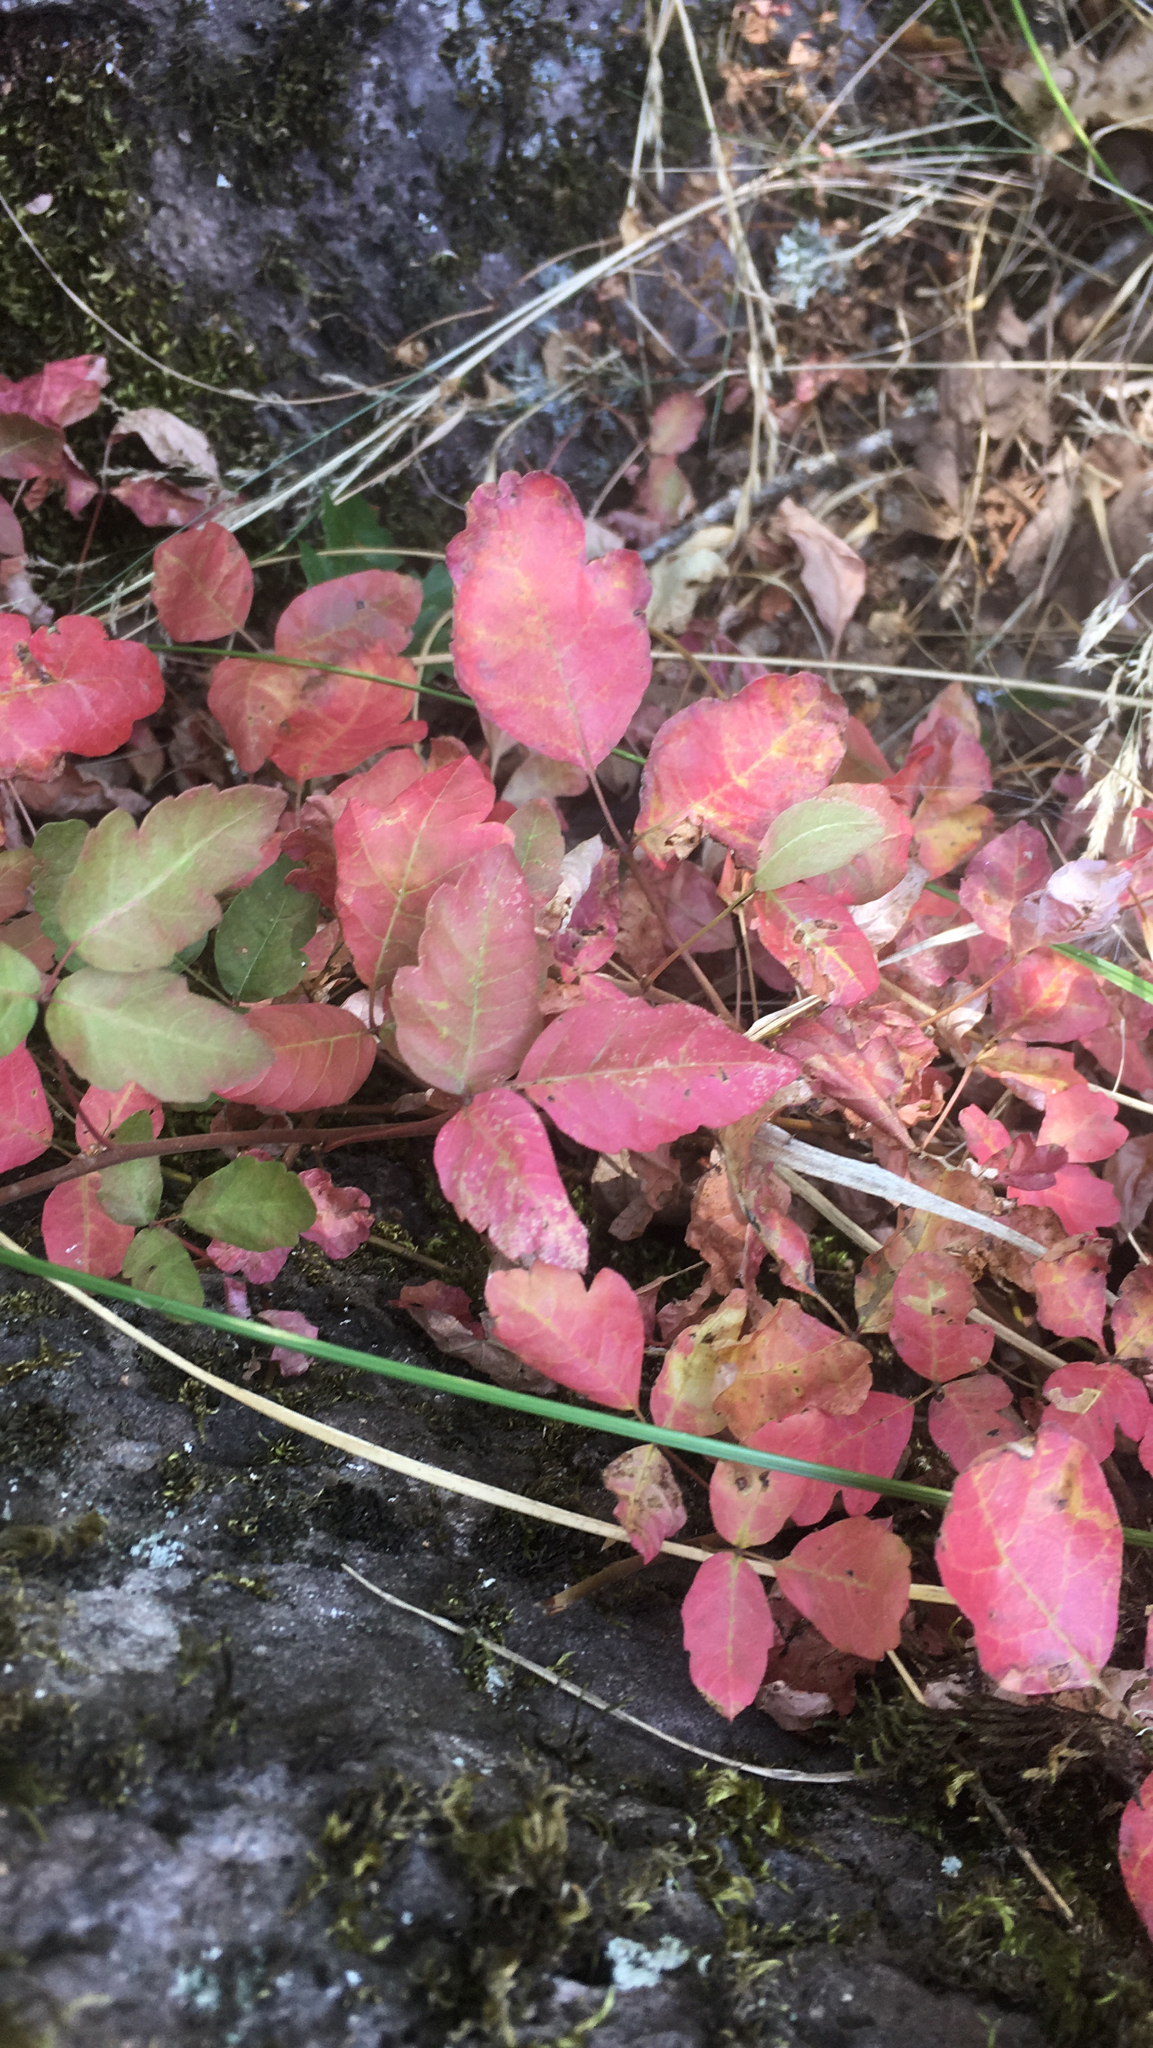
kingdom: Plantae
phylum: Tracheophyta
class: Magnoliopsida
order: Sapindales
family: Anacardiaceae
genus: Toxicodendron
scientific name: Toxicodendron diversilobum
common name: Pacific poison-oak
